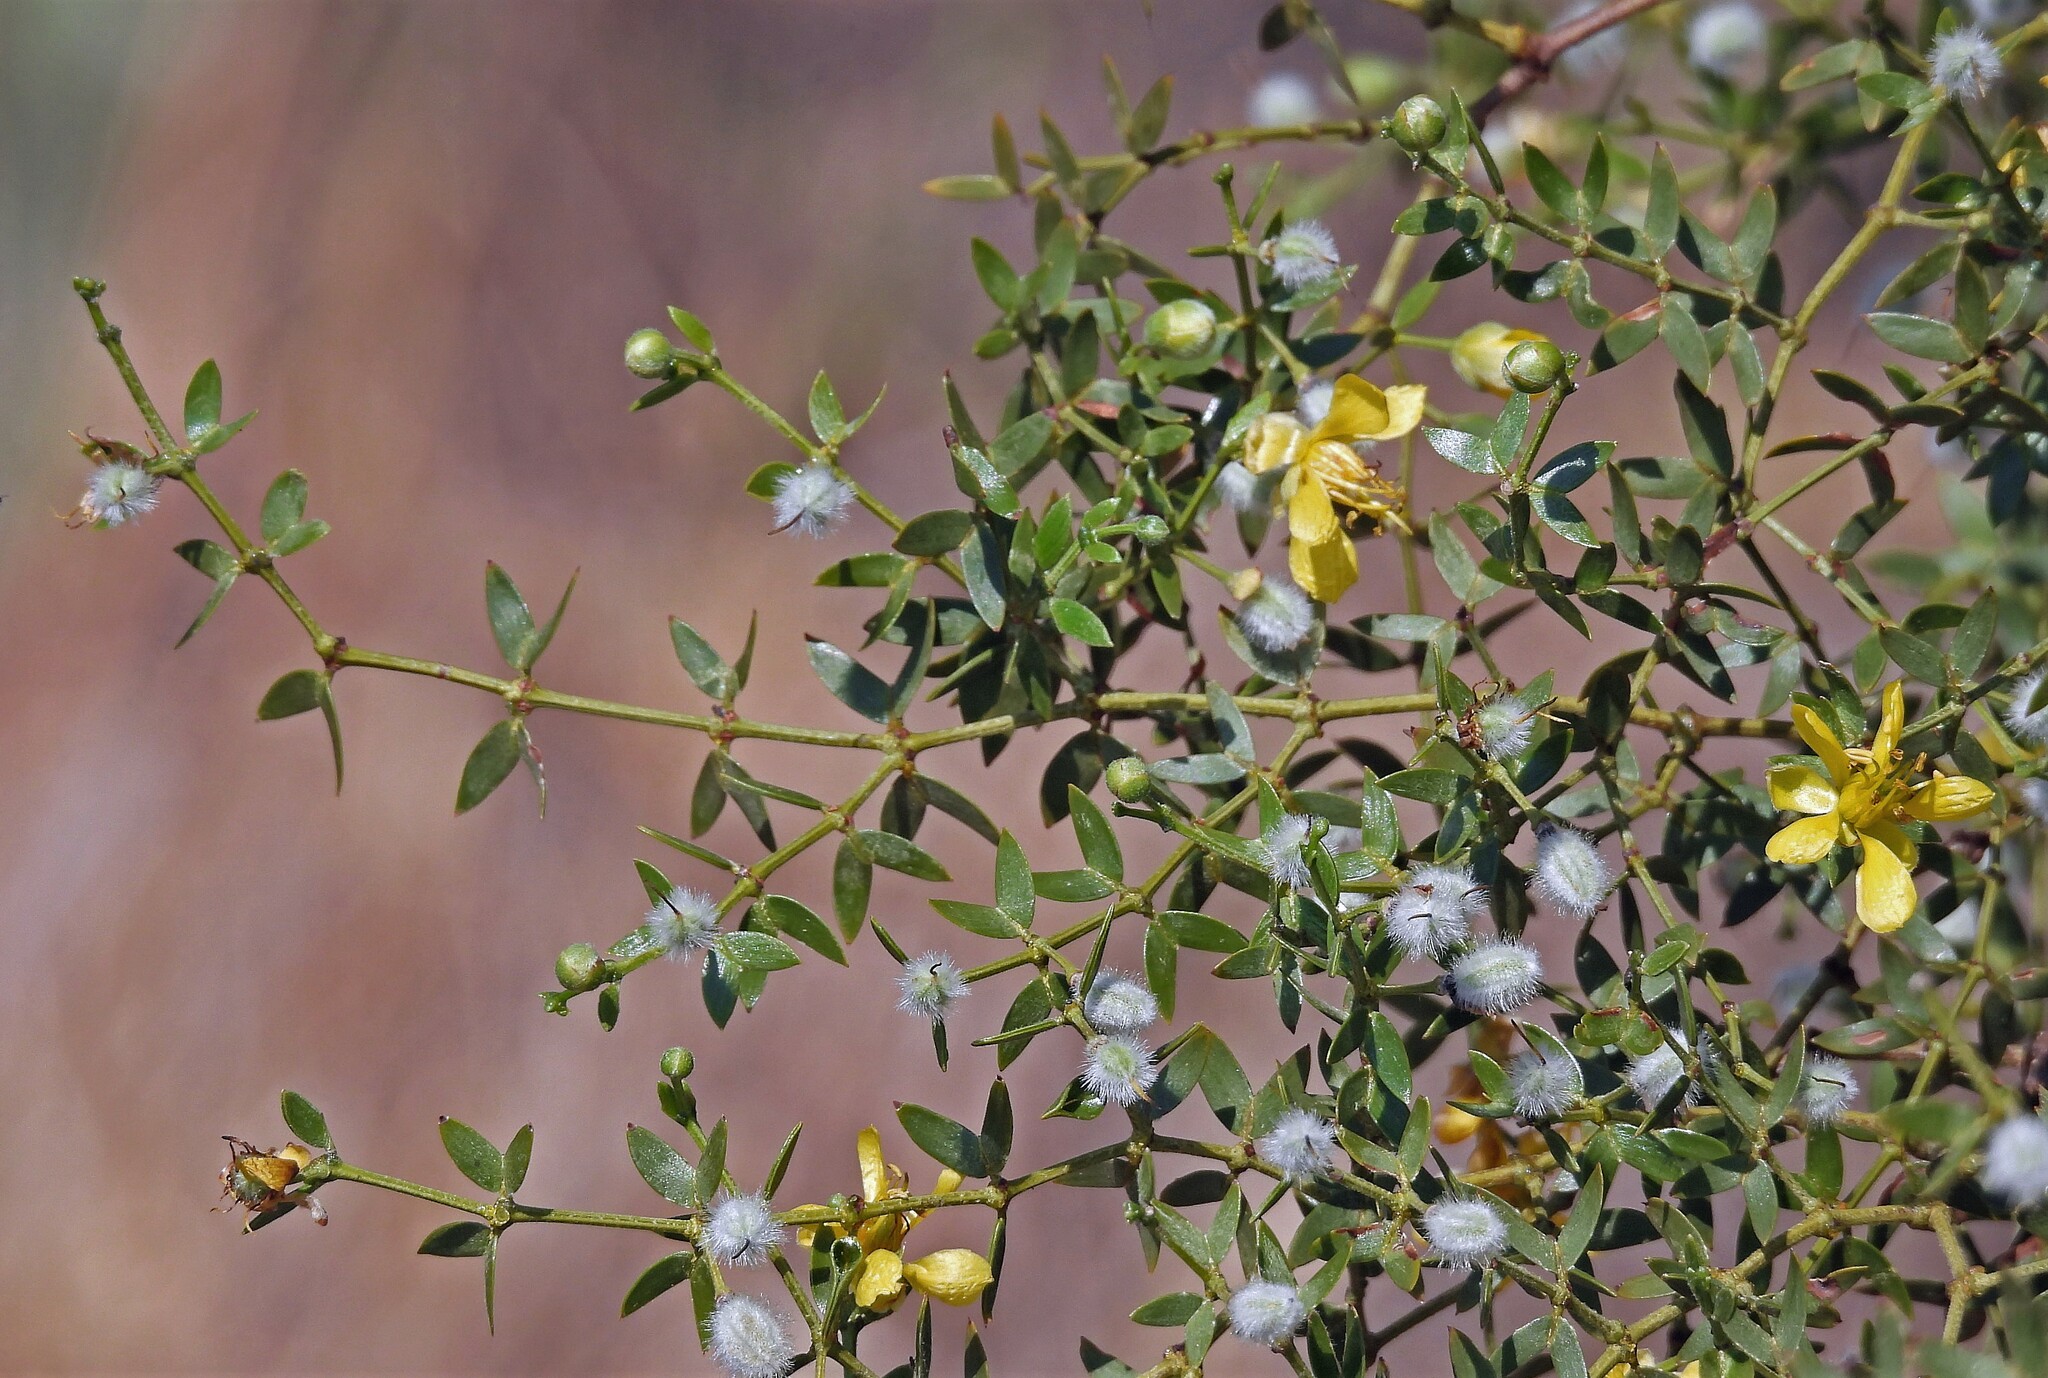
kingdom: Plantae
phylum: Tracheophyta
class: Magnoliopsida
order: Zygophyllales
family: Zygophyllaceae
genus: Larrea
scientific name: Larrea divaricata
